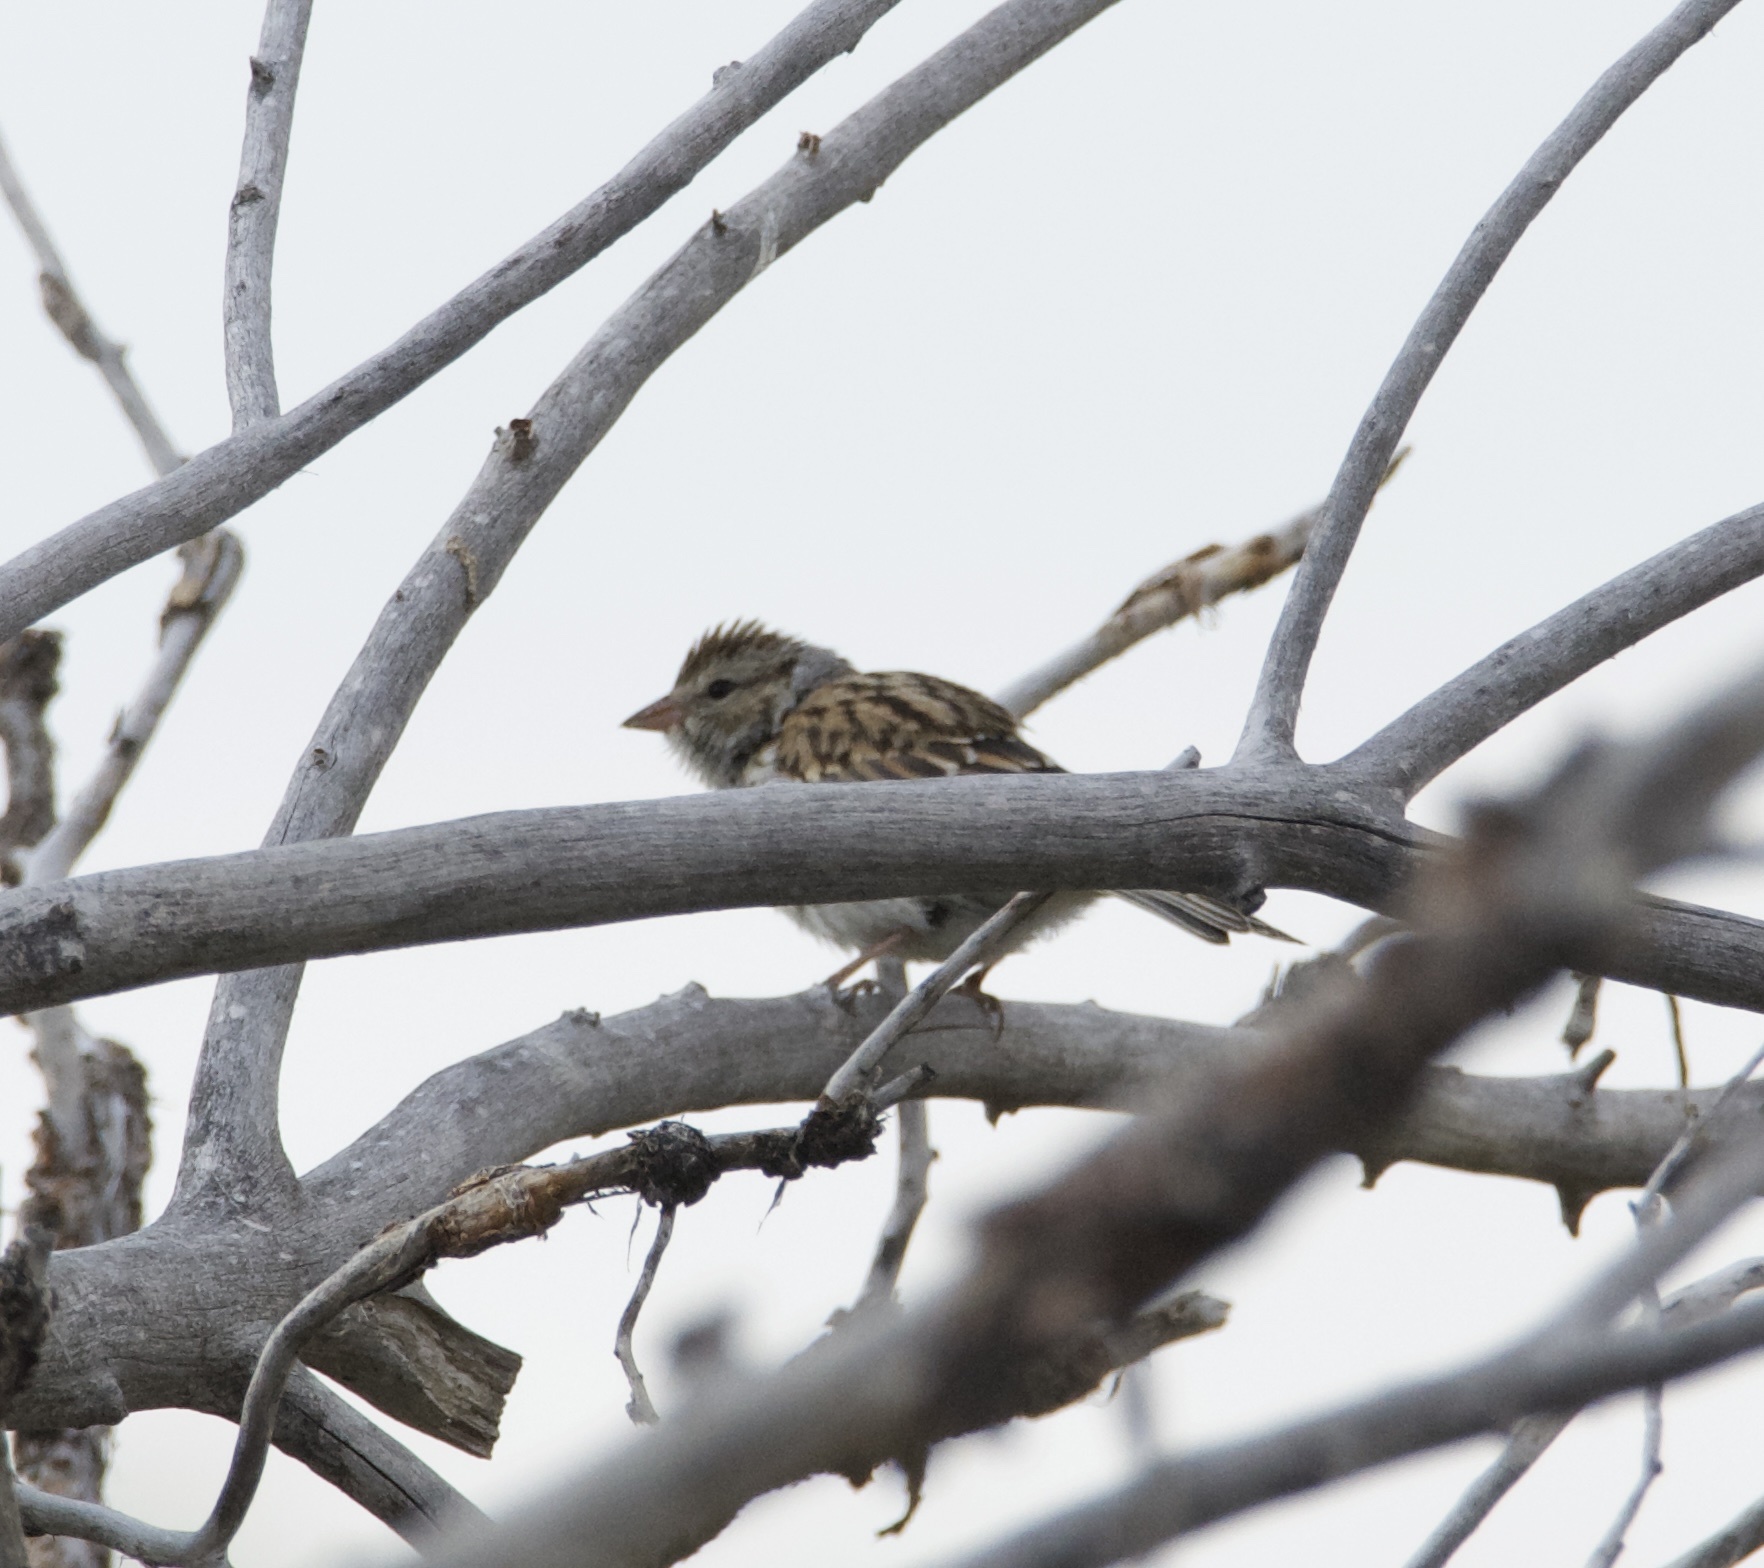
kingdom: Animalia
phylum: Chordata
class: Aves
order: Passeriformes
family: Passerellidae
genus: Spizella
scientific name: Spizella passerina
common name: Chipping sparrow
